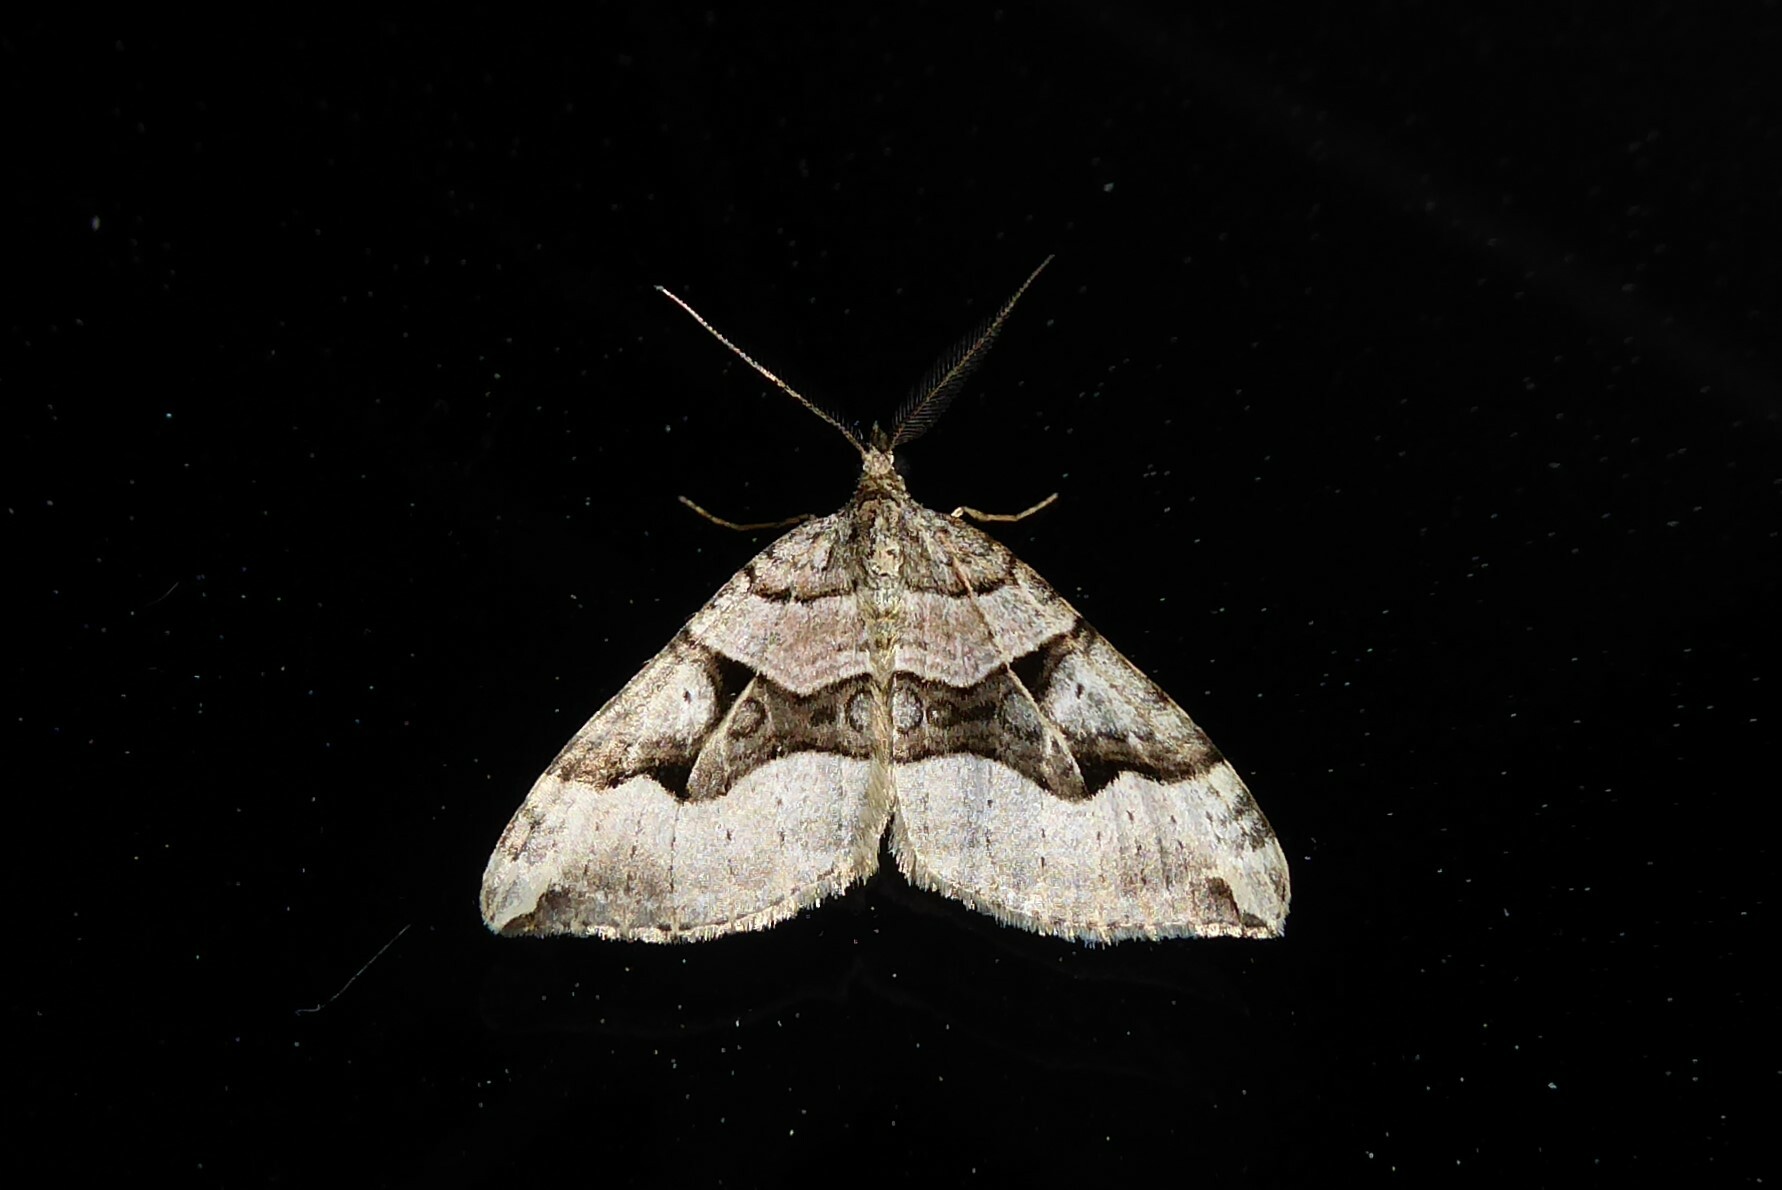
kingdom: Animalia
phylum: Arthropoda
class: Insecta
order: Lepidoptera
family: Geometridae
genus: Xanthorhoe
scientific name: Xanthorhoe semifissata
